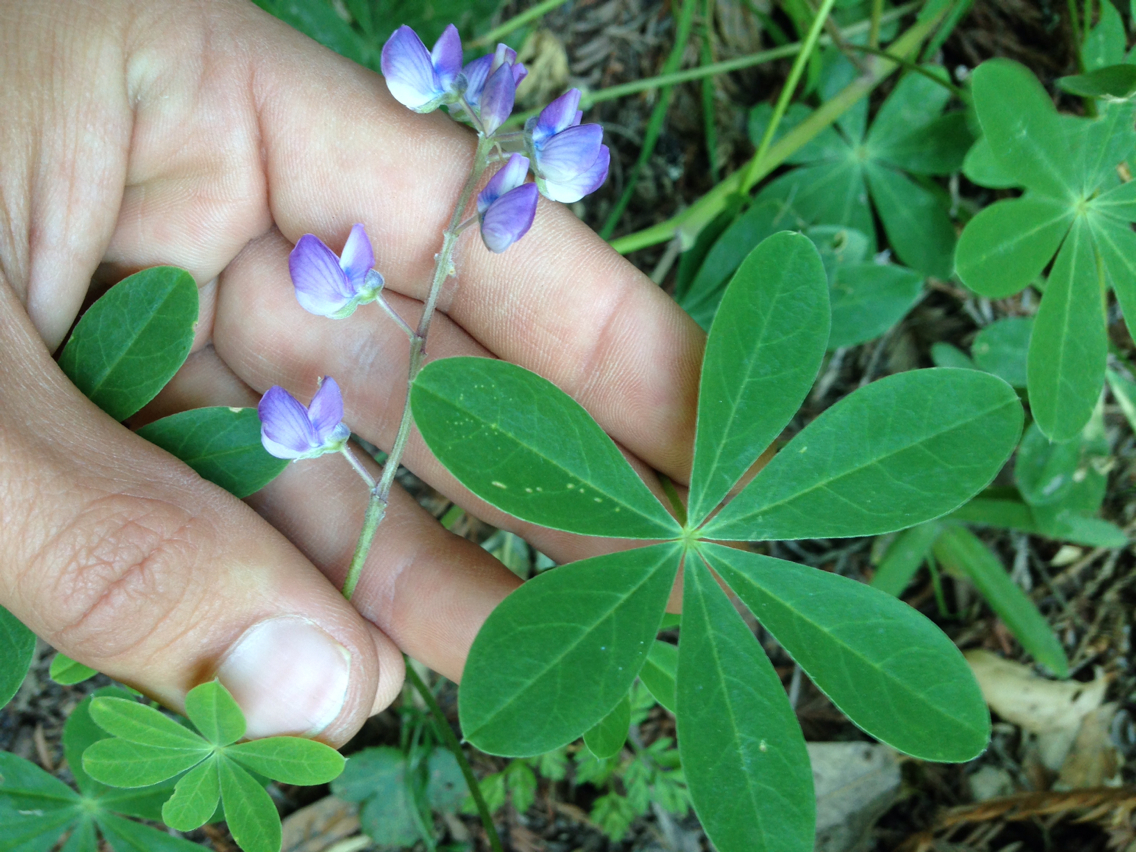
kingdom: Plantae
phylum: Tracheophyta
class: Magnoliopsida
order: Fabales
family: Fabaceae
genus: Lupinus
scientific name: Lupinus latifolius
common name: Broad-leaved lupine
